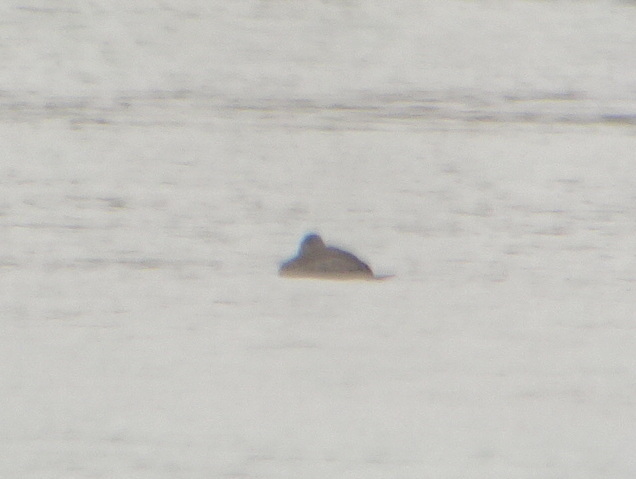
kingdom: Animalia
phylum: Chordata
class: Aves
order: Anseriformes
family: Anatidae
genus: Oxyura
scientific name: Oxyura jamaicensis
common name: Ruddy duck
